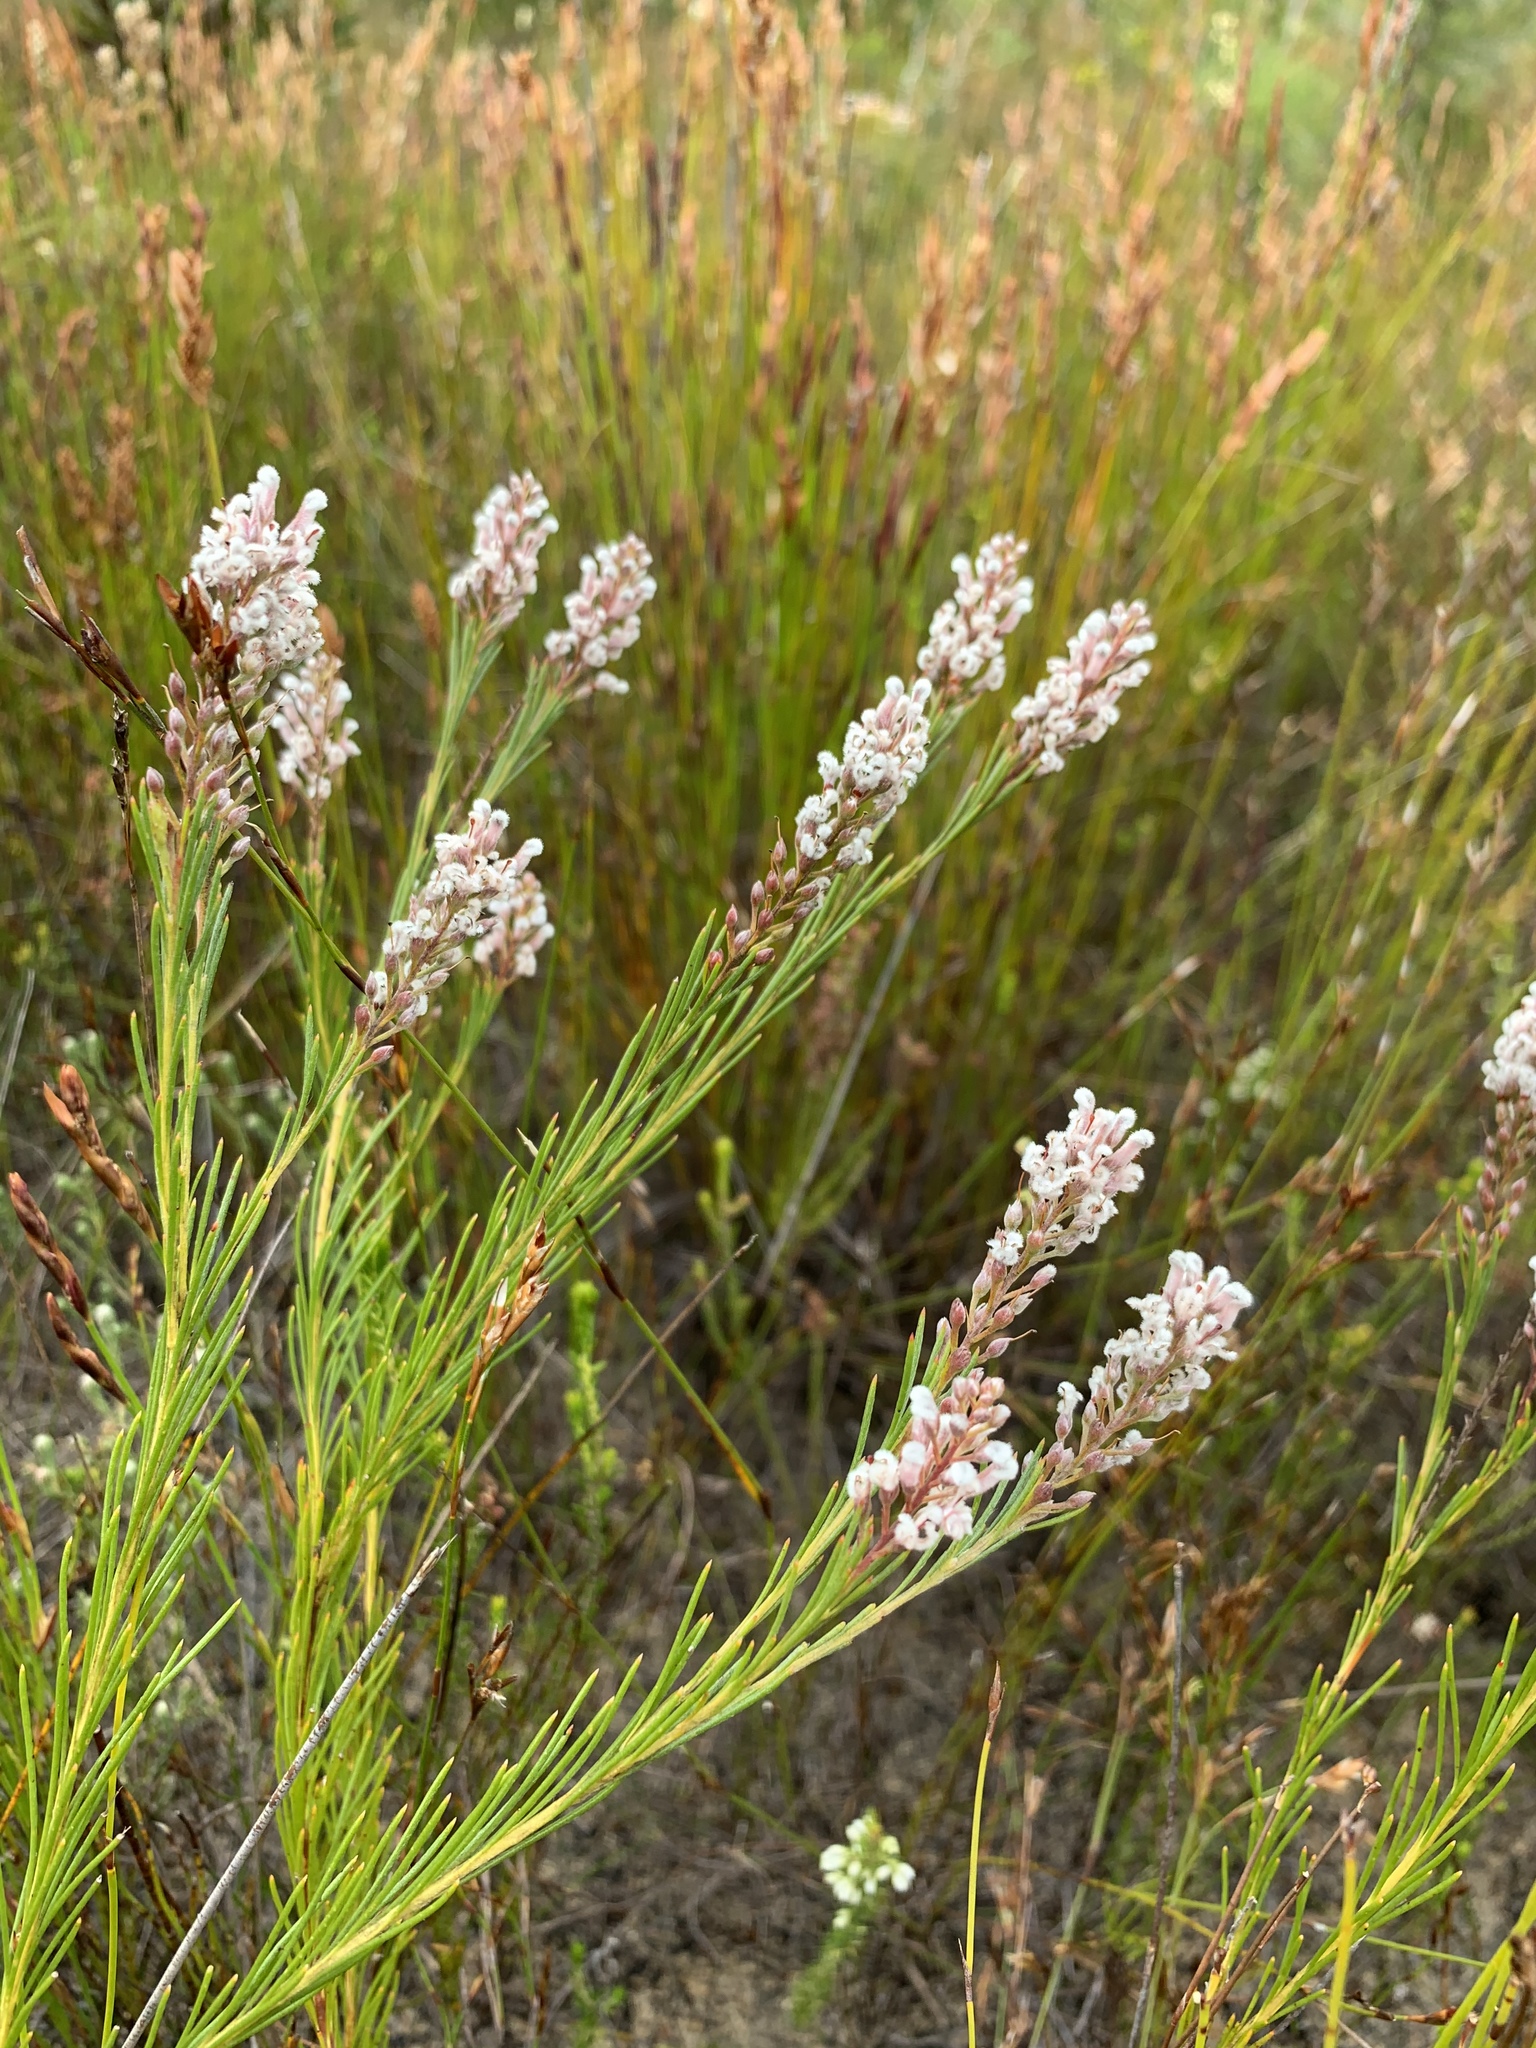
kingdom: Plantae
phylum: Tracheophyta
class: Magnoliopsida
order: Proteales
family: Proteaceae
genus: Spatalla
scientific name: Spatalla racemosa
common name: Lax-stalked spoon
